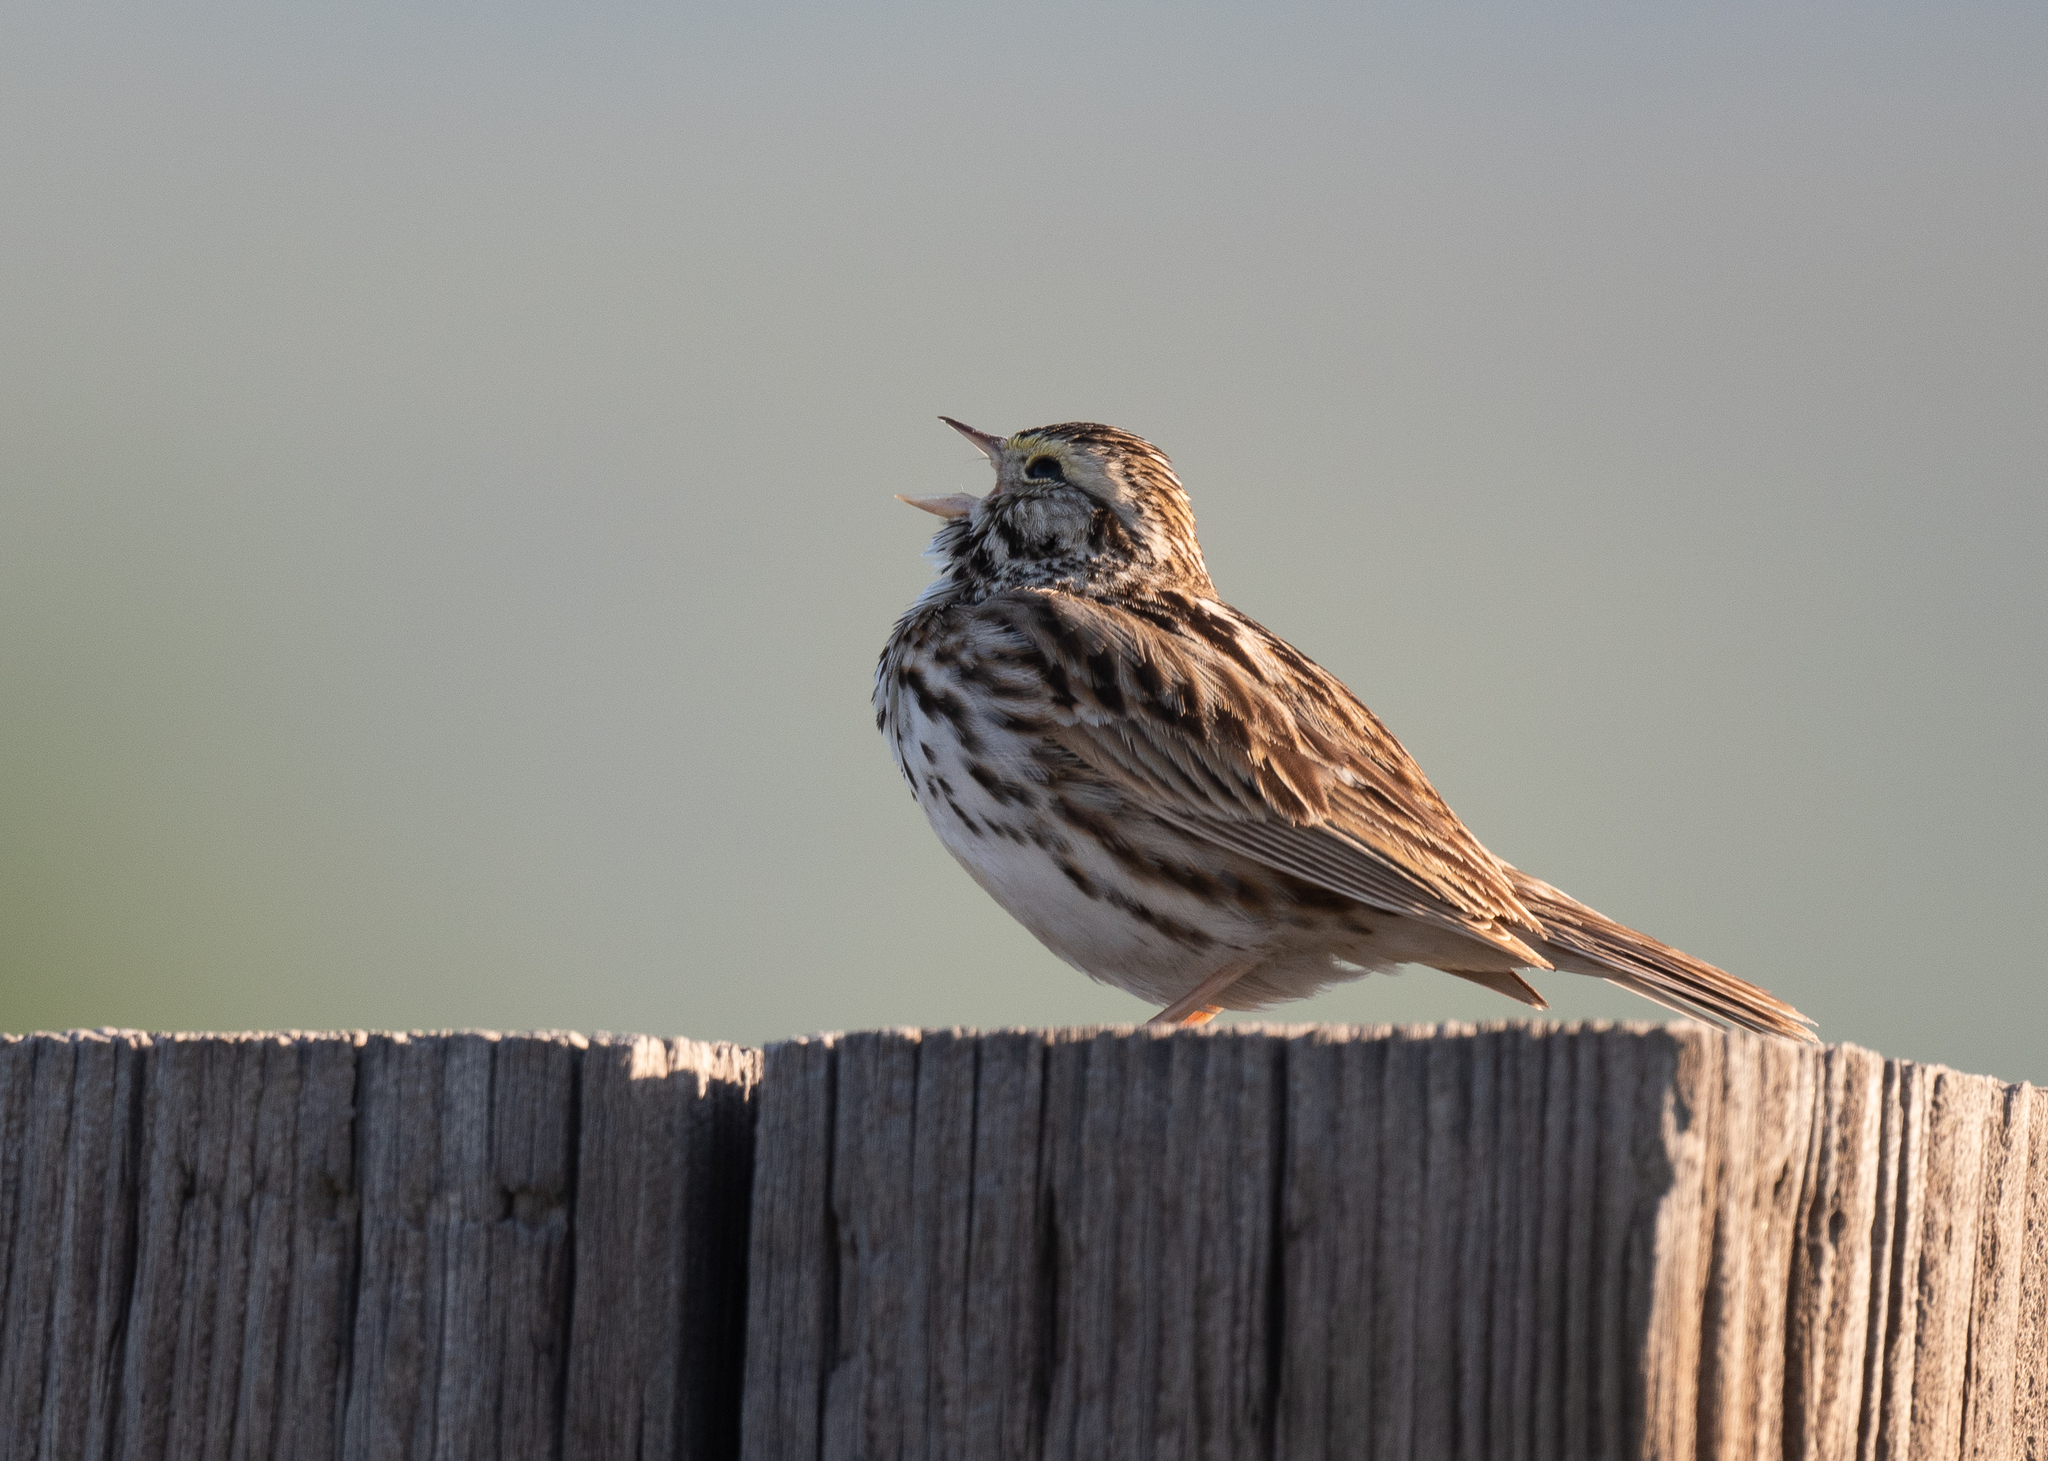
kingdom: Animalia
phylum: Chordata
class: Aves
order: Passeriformes
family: Passerellidae
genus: Passerculus
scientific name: Passerculus sandwichensis
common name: Savannah sparrow
